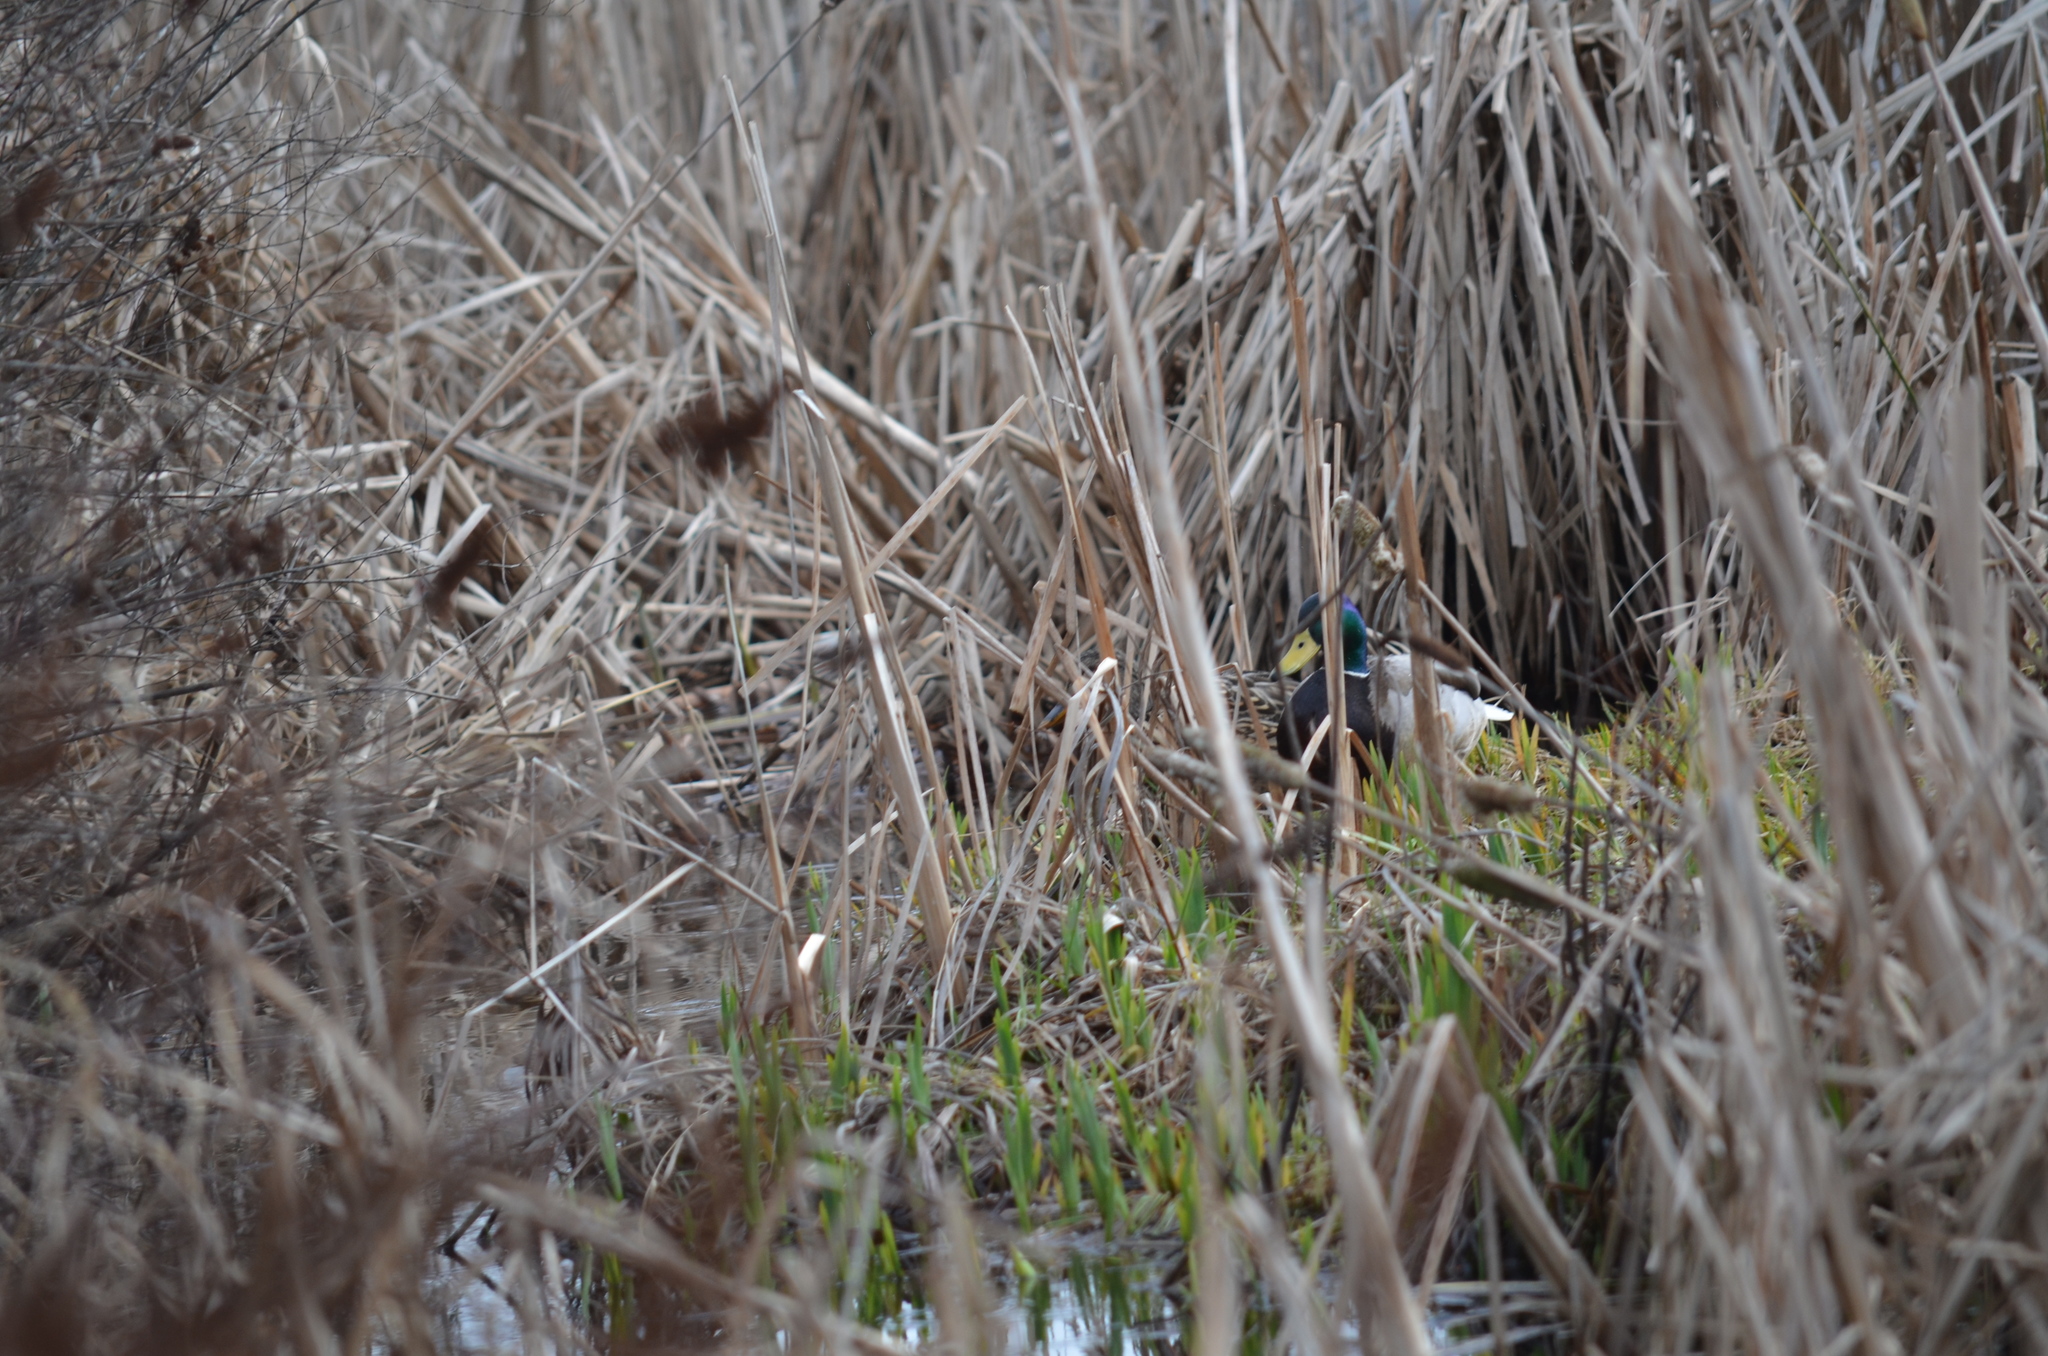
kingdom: Animalia
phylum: Chordata
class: Aves
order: Anseriformes
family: Anatidae
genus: Anas
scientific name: Anas platyrhynchos
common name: Mallard
